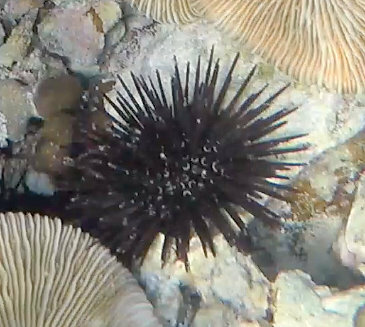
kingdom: Animalia
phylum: Echinodermata
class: Echinoidea
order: Camarodonta
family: Parasaleniidae
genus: Parasalenia
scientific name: Parasalenia gratiosa
